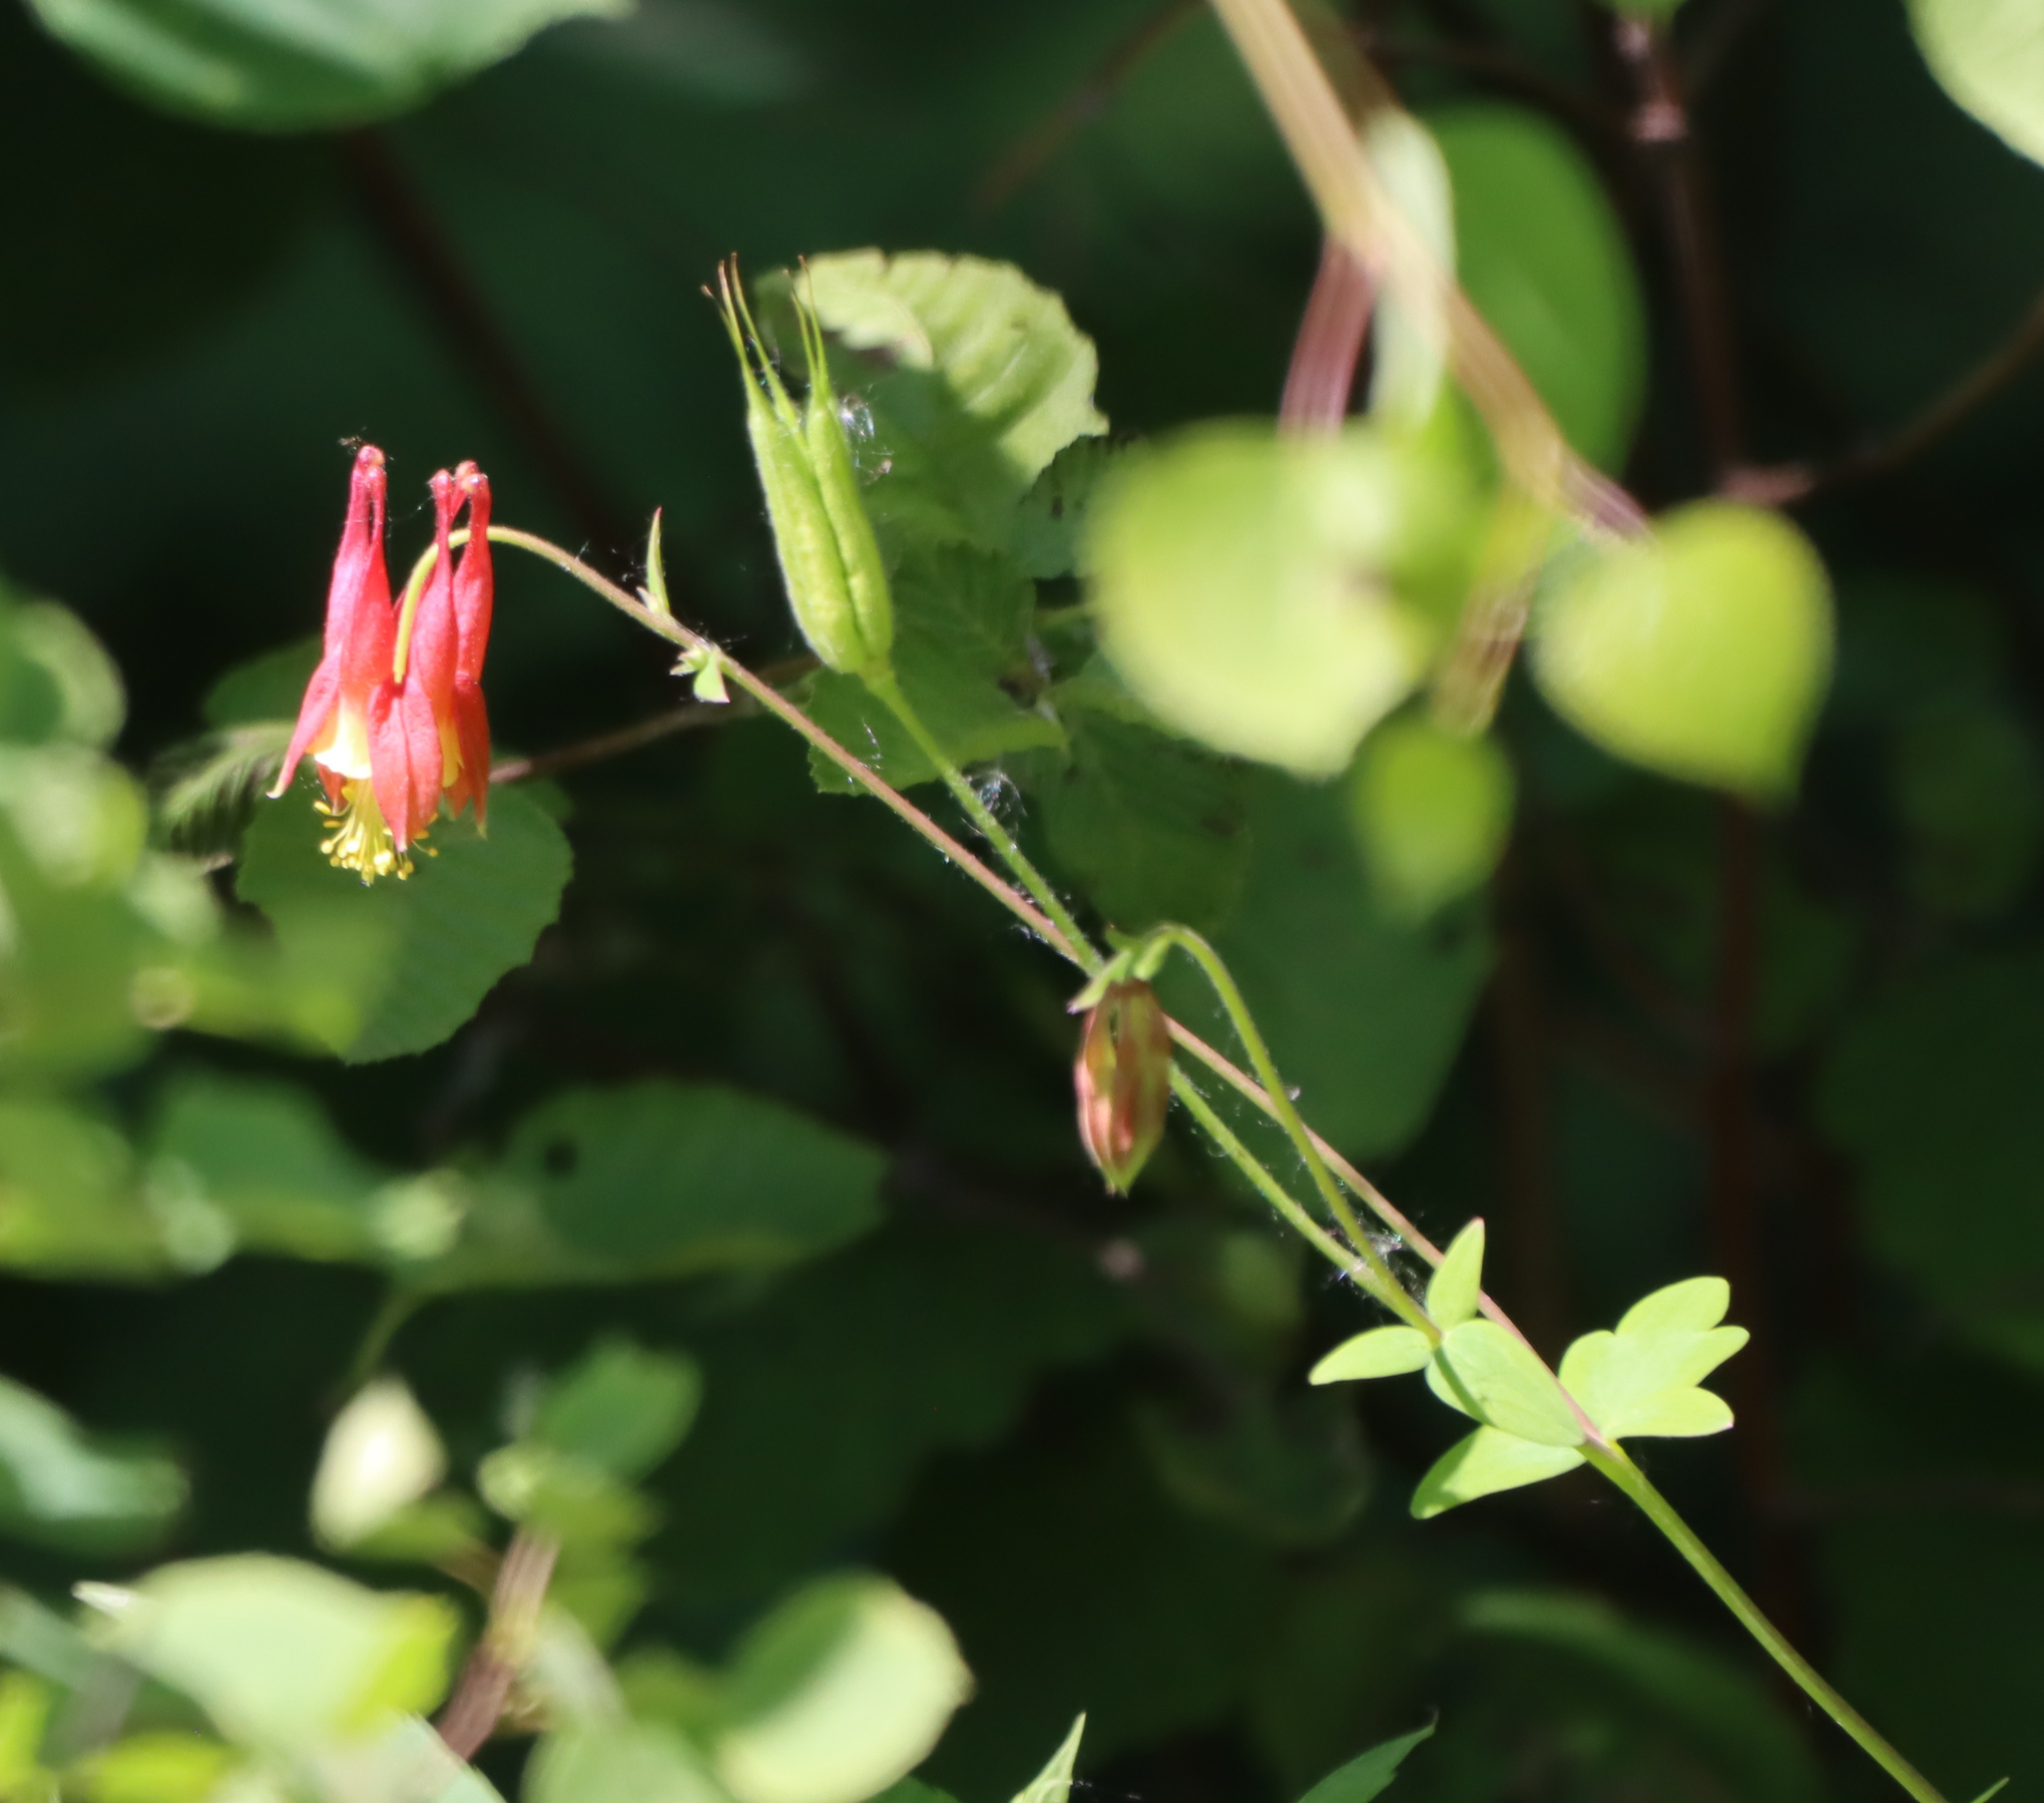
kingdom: Plantae
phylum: Tracheophyta
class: Magnoliopsida
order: Ranunculales
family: Ranunculaceae
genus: Aquilegia
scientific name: Aquilegia canadensis
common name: American columbine
